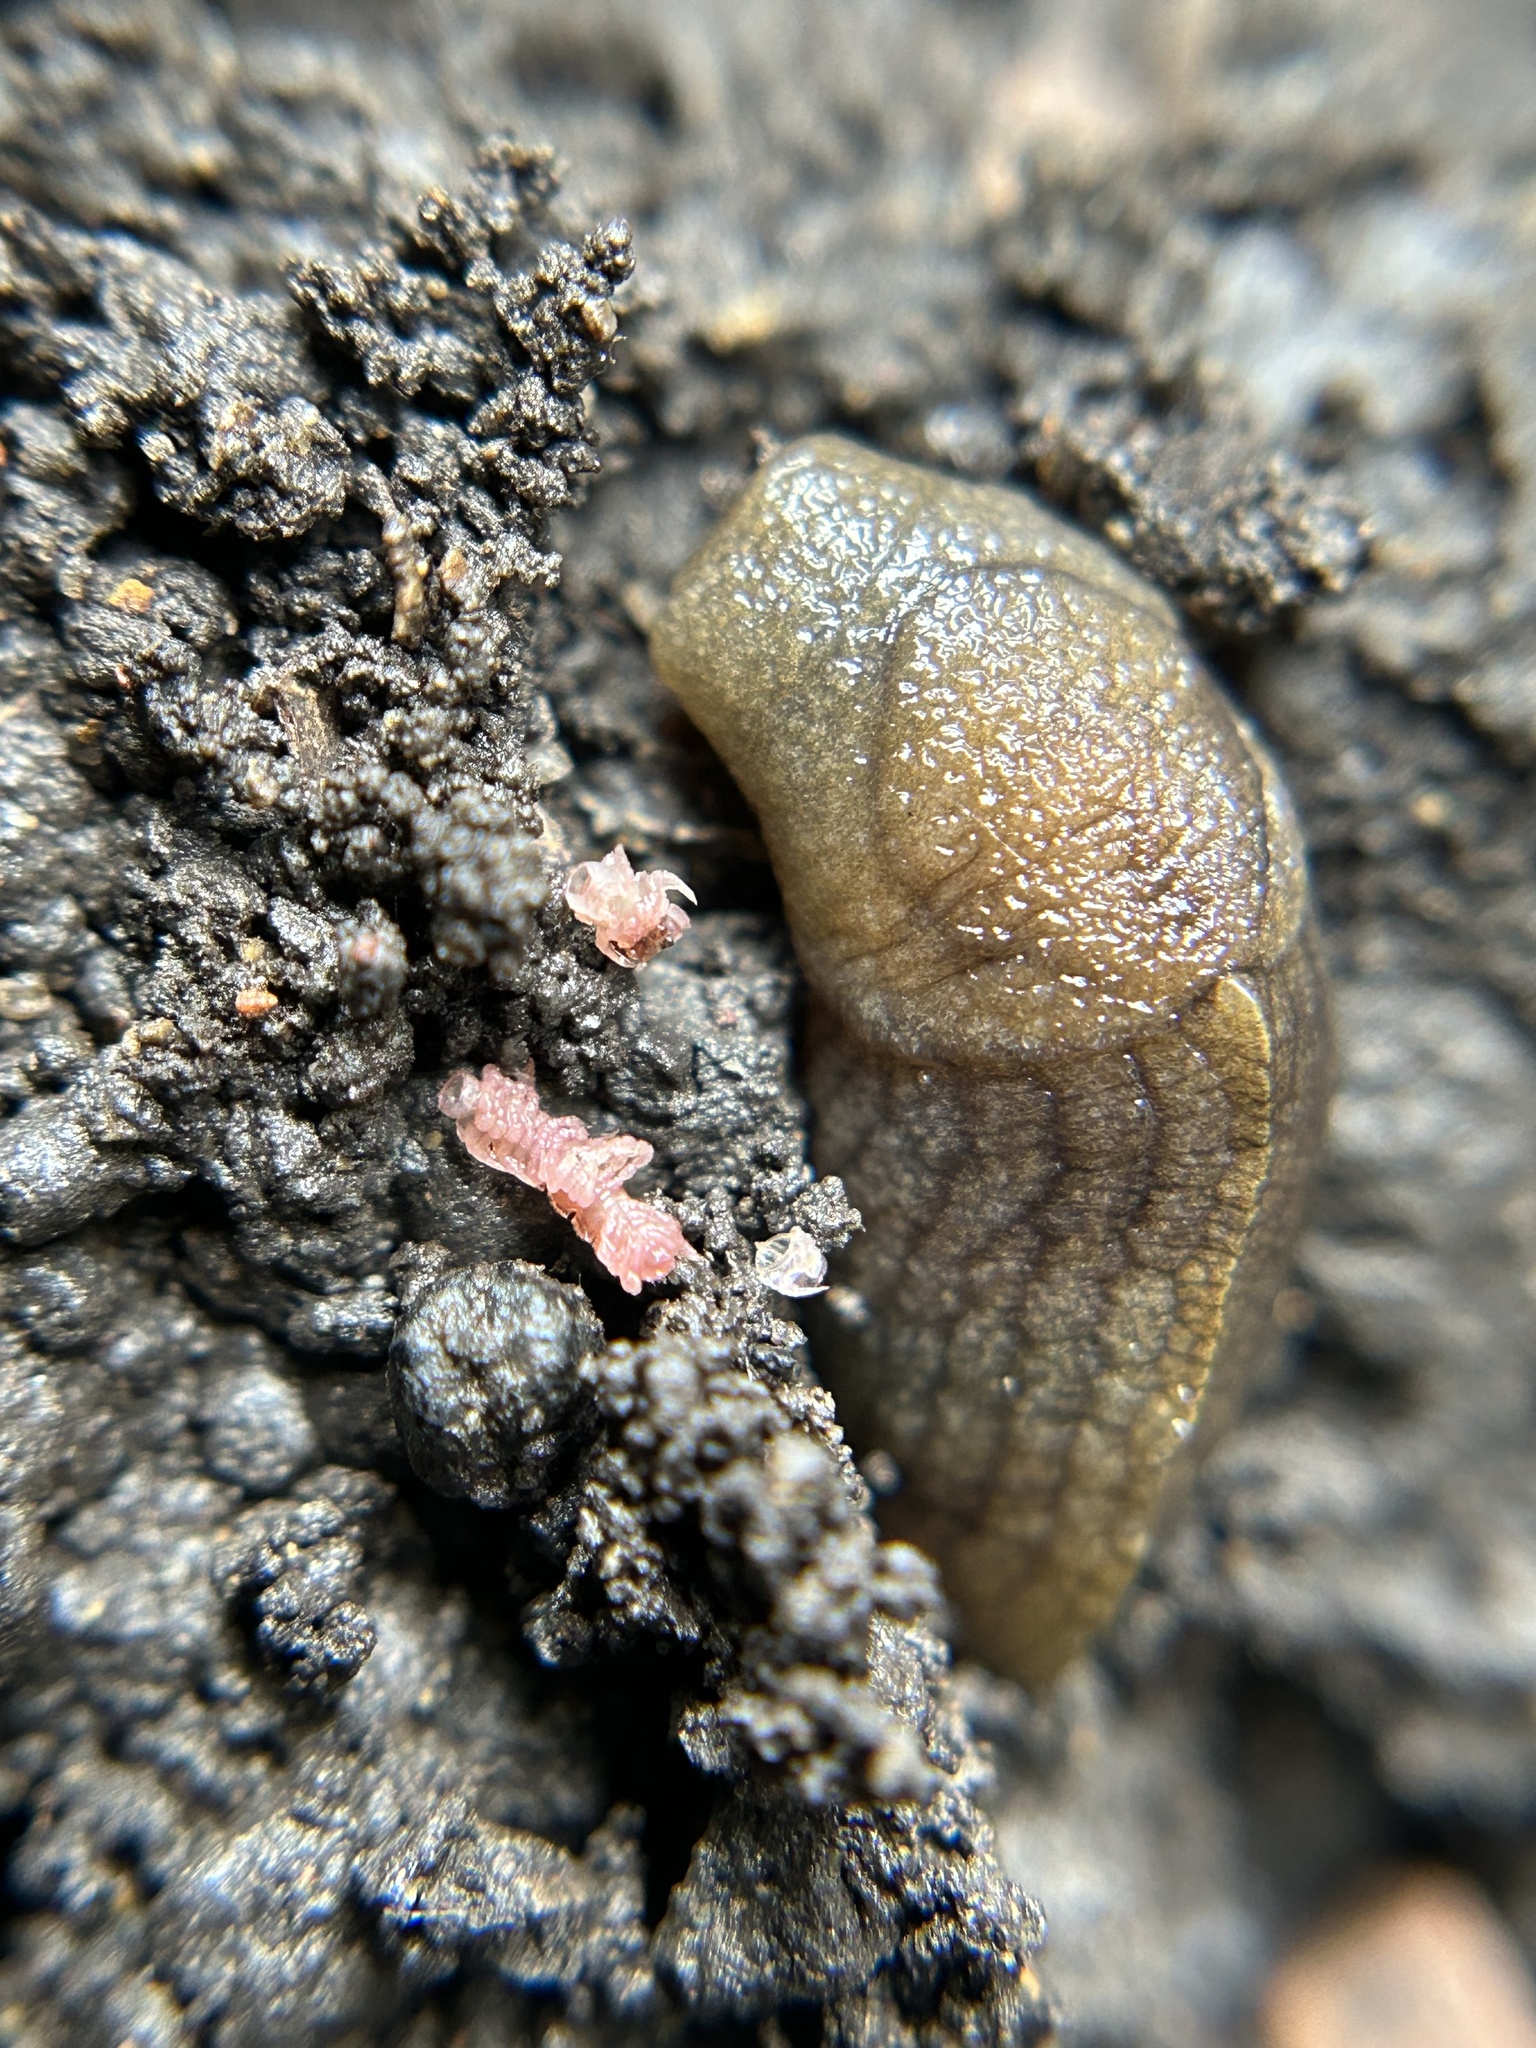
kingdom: Animalia
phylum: Mollusca
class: Gastropoda
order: Stylommatophora
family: Milacidae
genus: Milax
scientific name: Milax gagates
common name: Greenhouse slug
